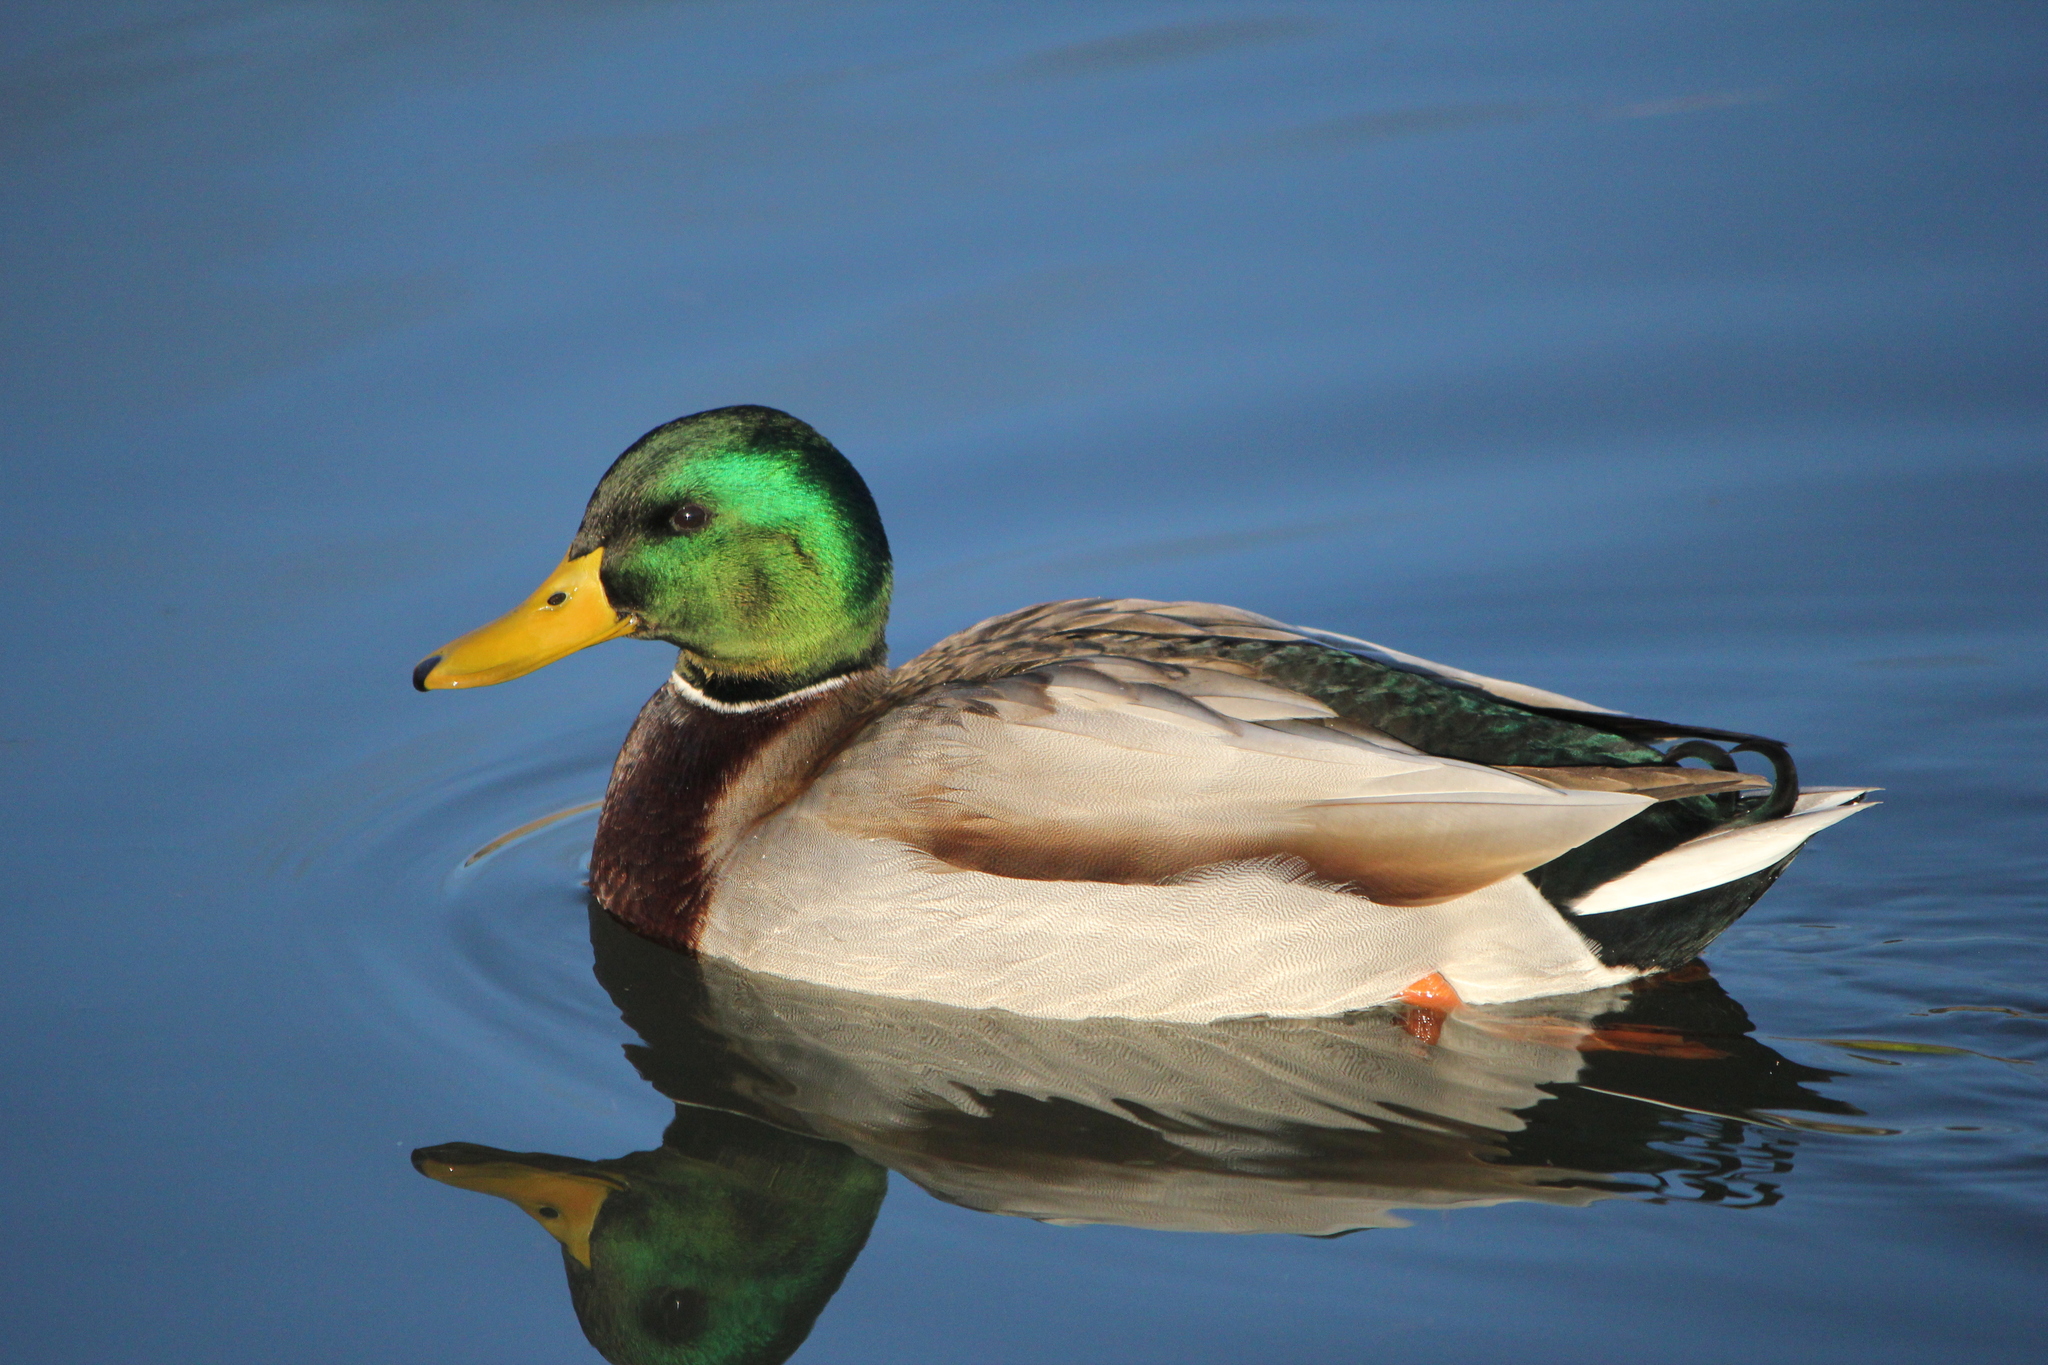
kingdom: Animalia
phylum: Chordata
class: Aves
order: Anseriformes
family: Anatidae
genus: Anas
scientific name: Anas platyrhynchos
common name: Mallard
